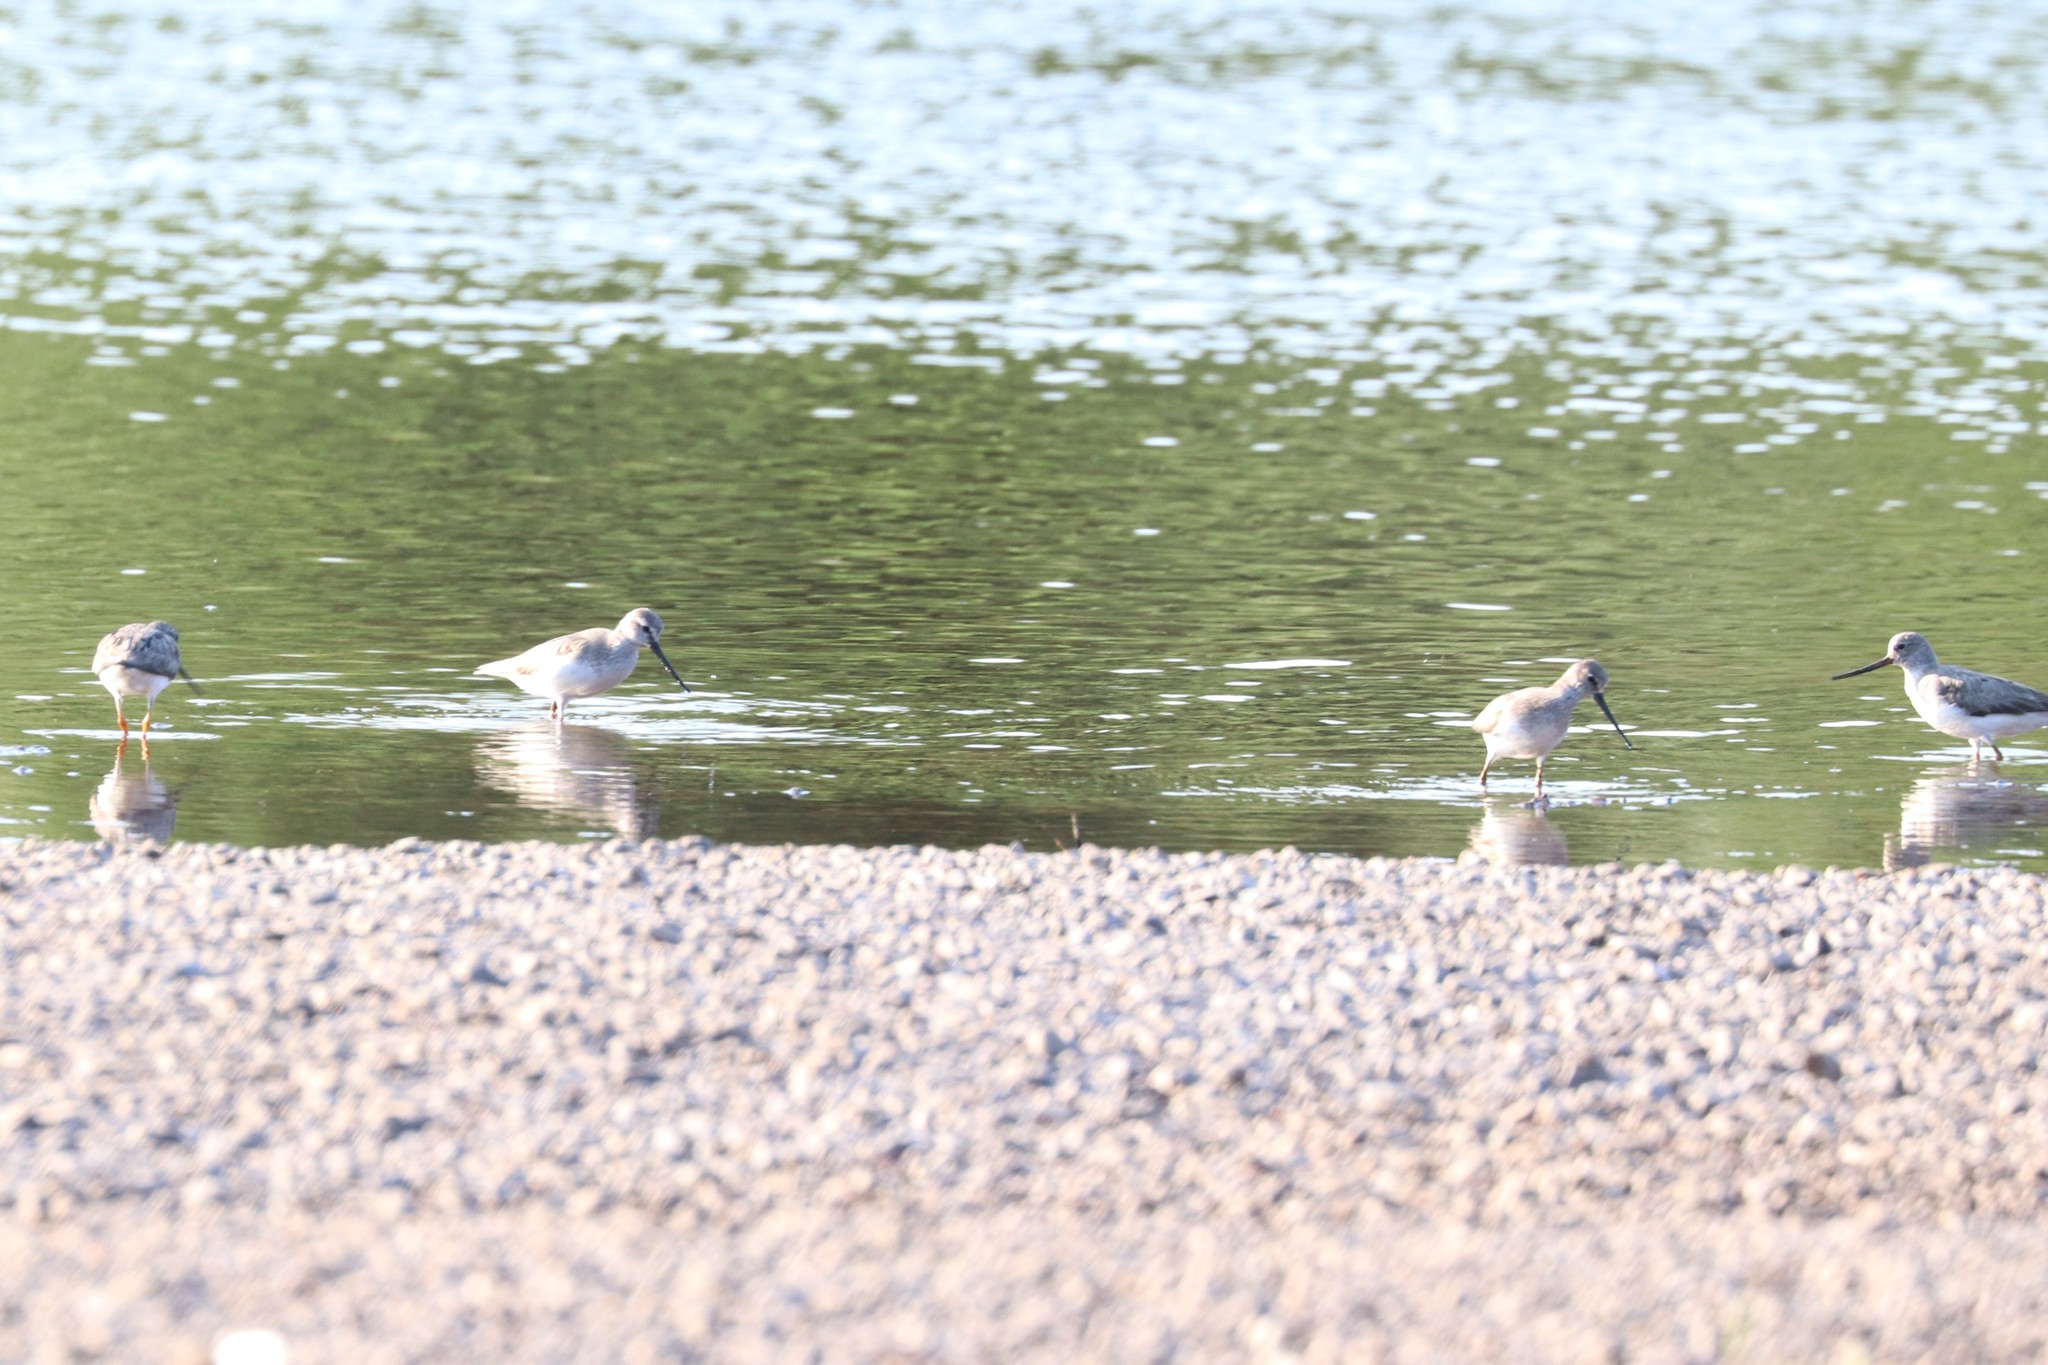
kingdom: Animalia
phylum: Chordata
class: Aves
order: Charadriiformes
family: Scolopacidae
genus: Xenus
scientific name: Xenus cinereus
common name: Terek sandpiper
